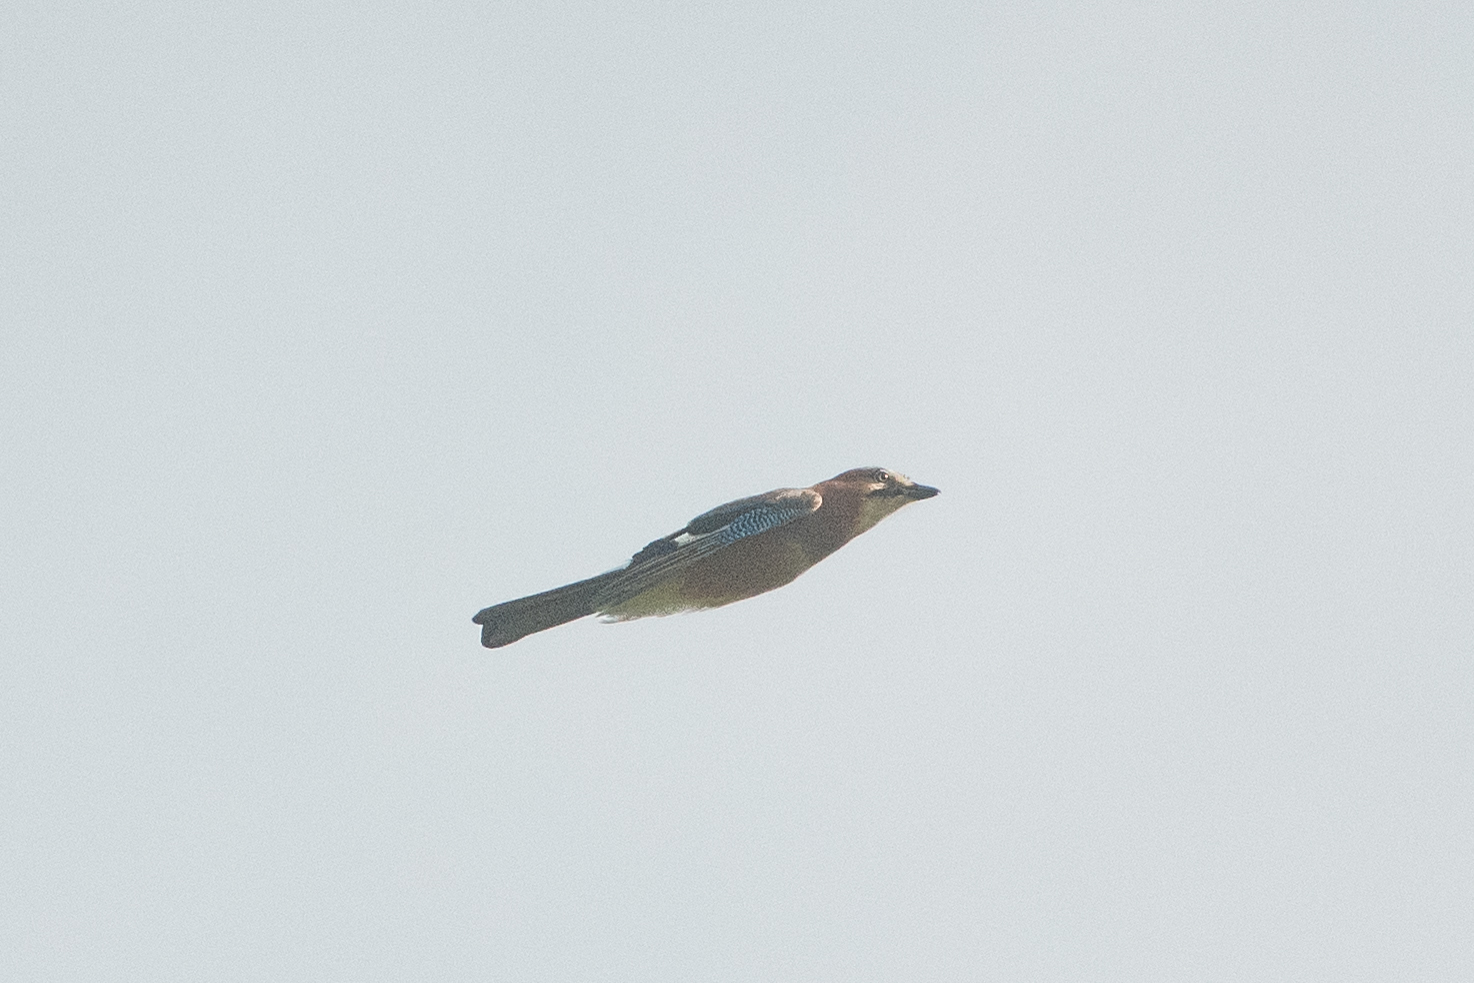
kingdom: Animalia
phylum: Chordata
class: Aves
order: Passeriformes
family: Corvidae
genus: Garrulus
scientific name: Garrulus glandarius
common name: Eurasian jay
